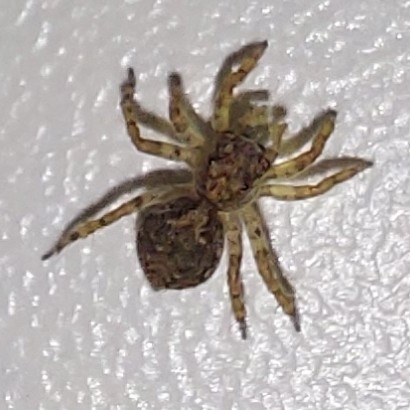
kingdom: Animalia
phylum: Arthropoda
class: Arachnida
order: Araneae
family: Salticidae
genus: Marma
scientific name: Marma nigritarsis
